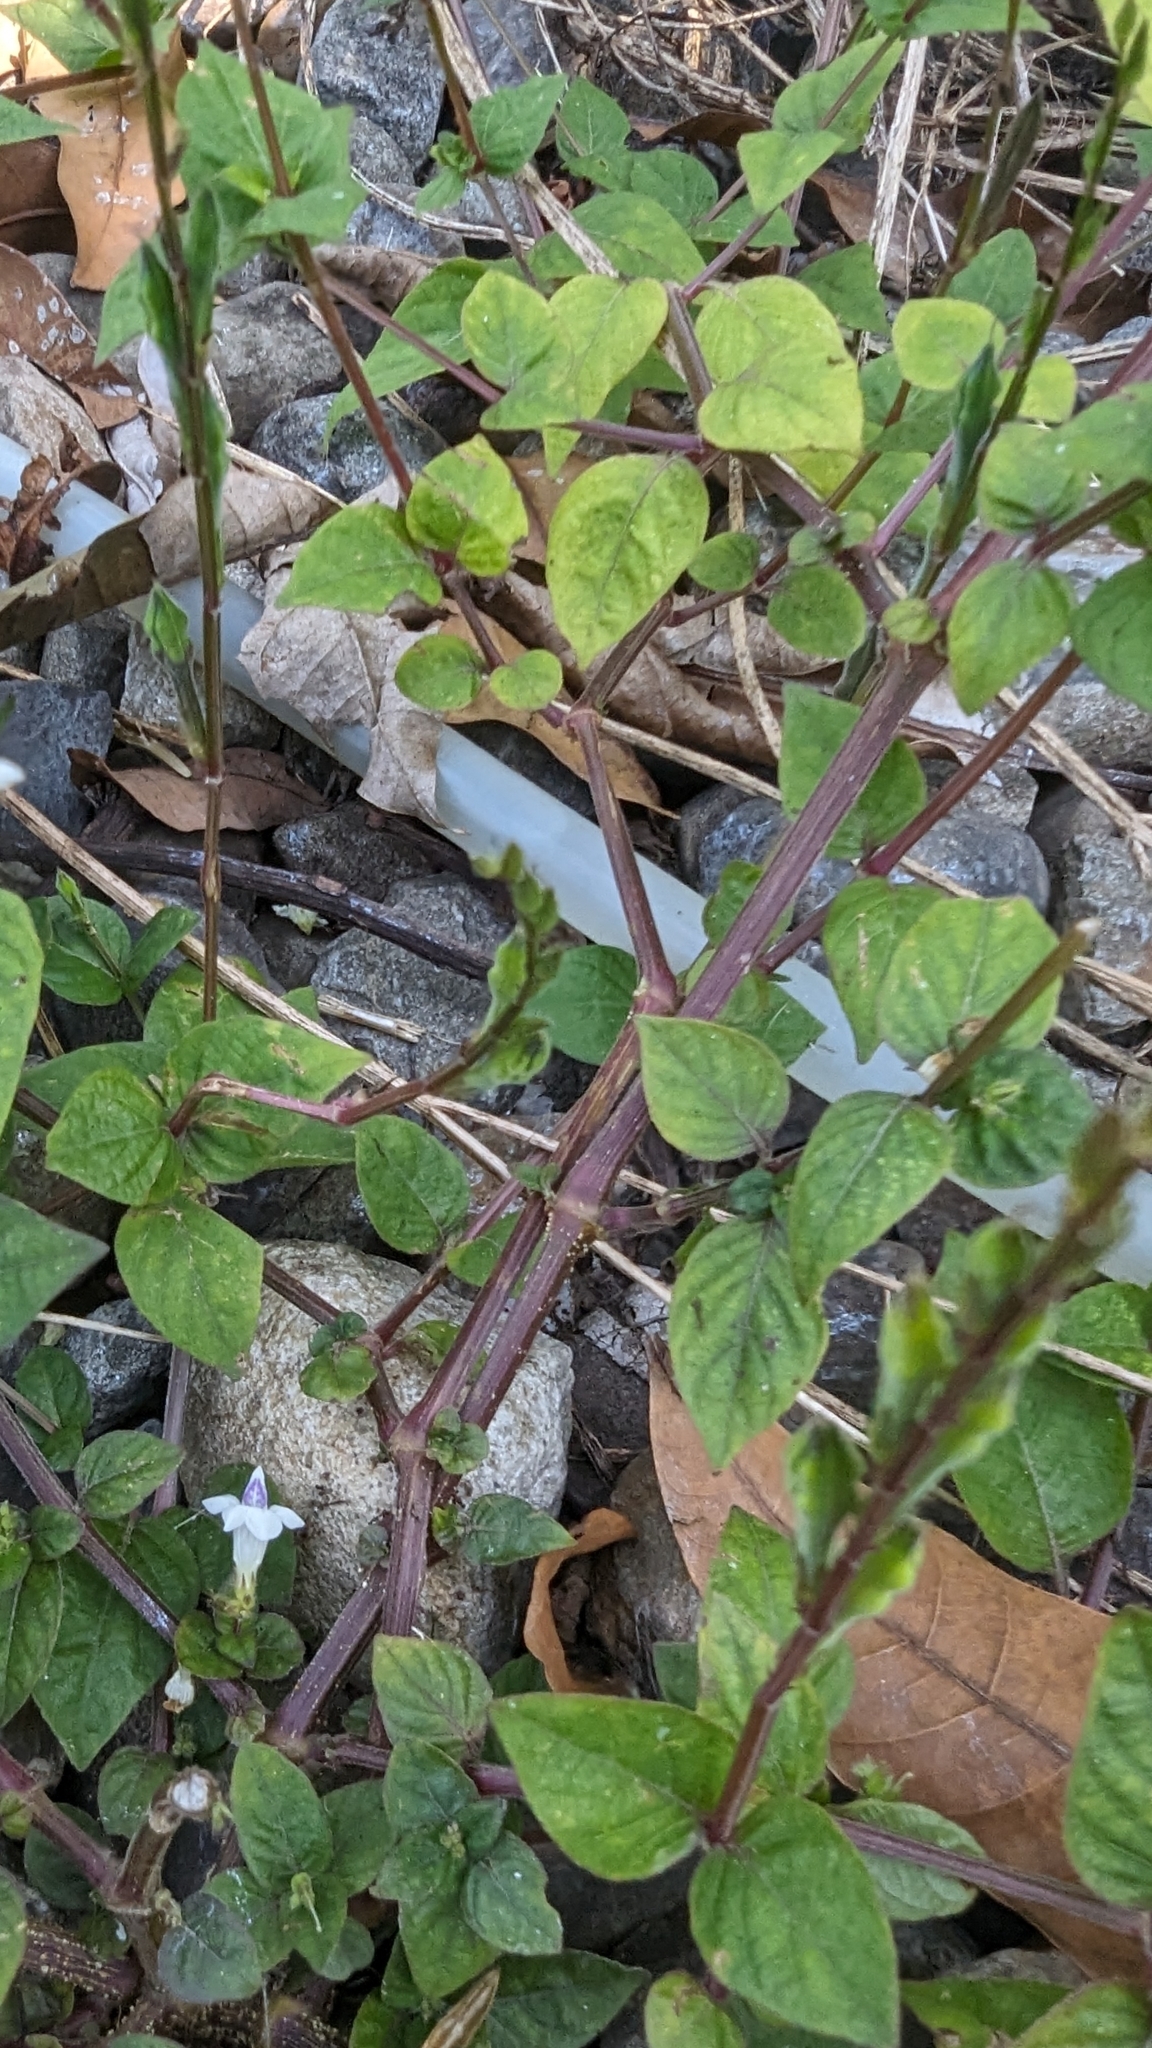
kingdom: Plantae
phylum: Tracheophyta
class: Magnoliopsida
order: Lamiales
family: Acanthaceae
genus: Asystasia
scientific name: Asystasia intrusa
